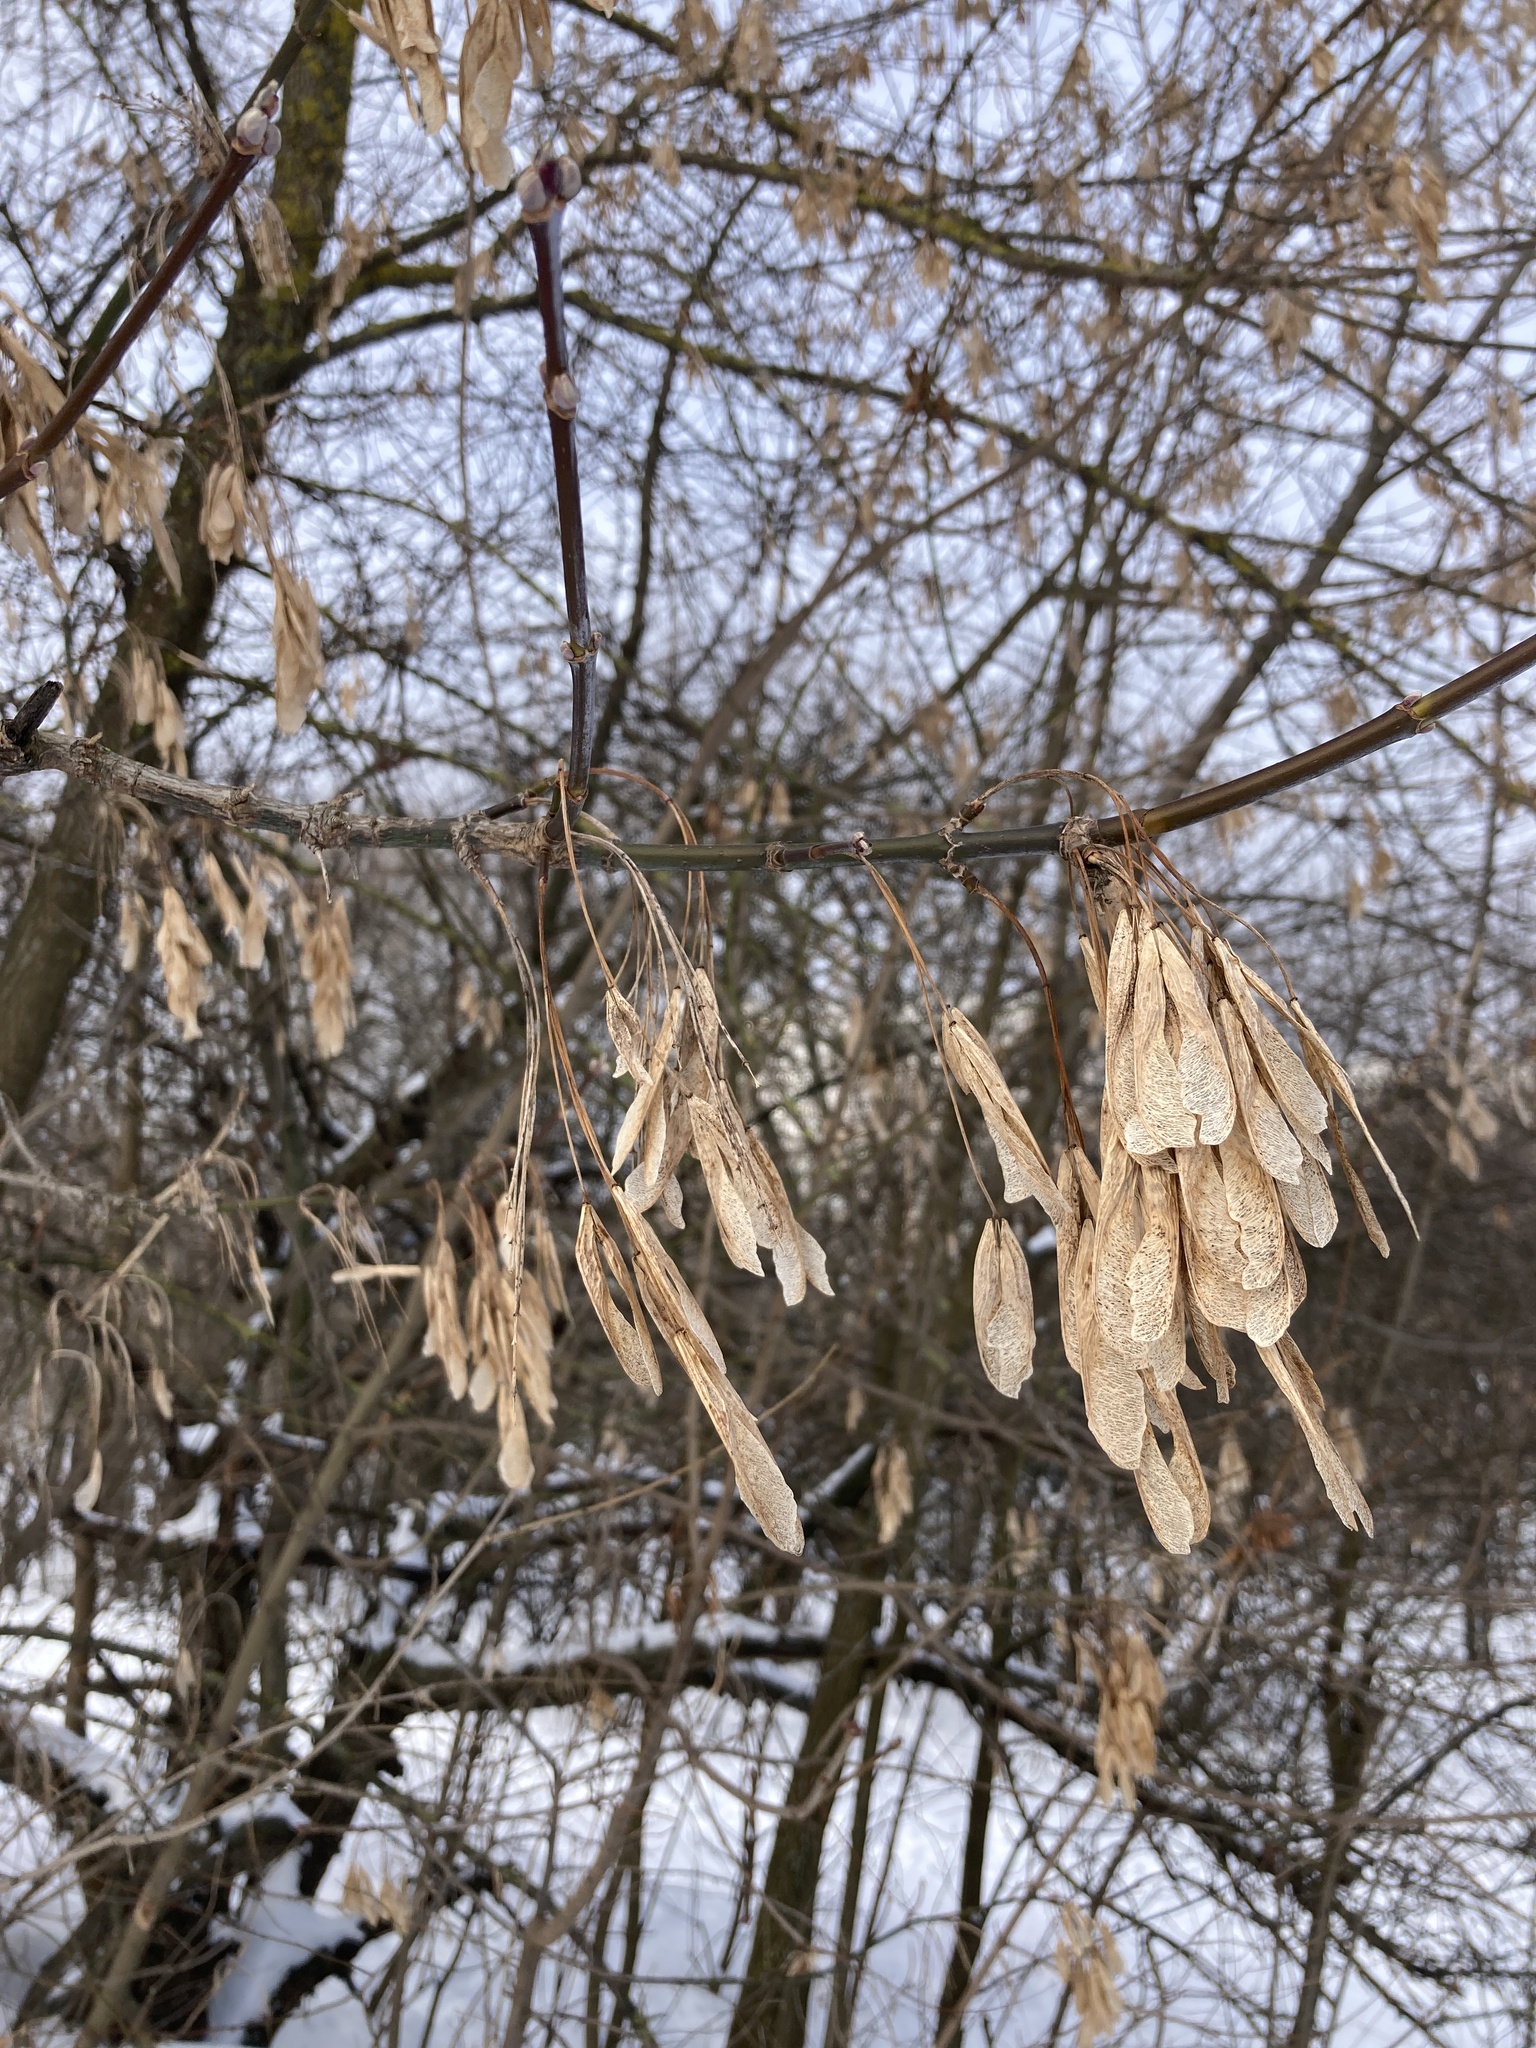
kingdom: Plantae
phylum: Tracheophyta
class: Magnoliopsida
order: Sapindales
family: Sapindaceae
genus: Acer
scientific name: Acer negundo
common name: Ashleaf maple
